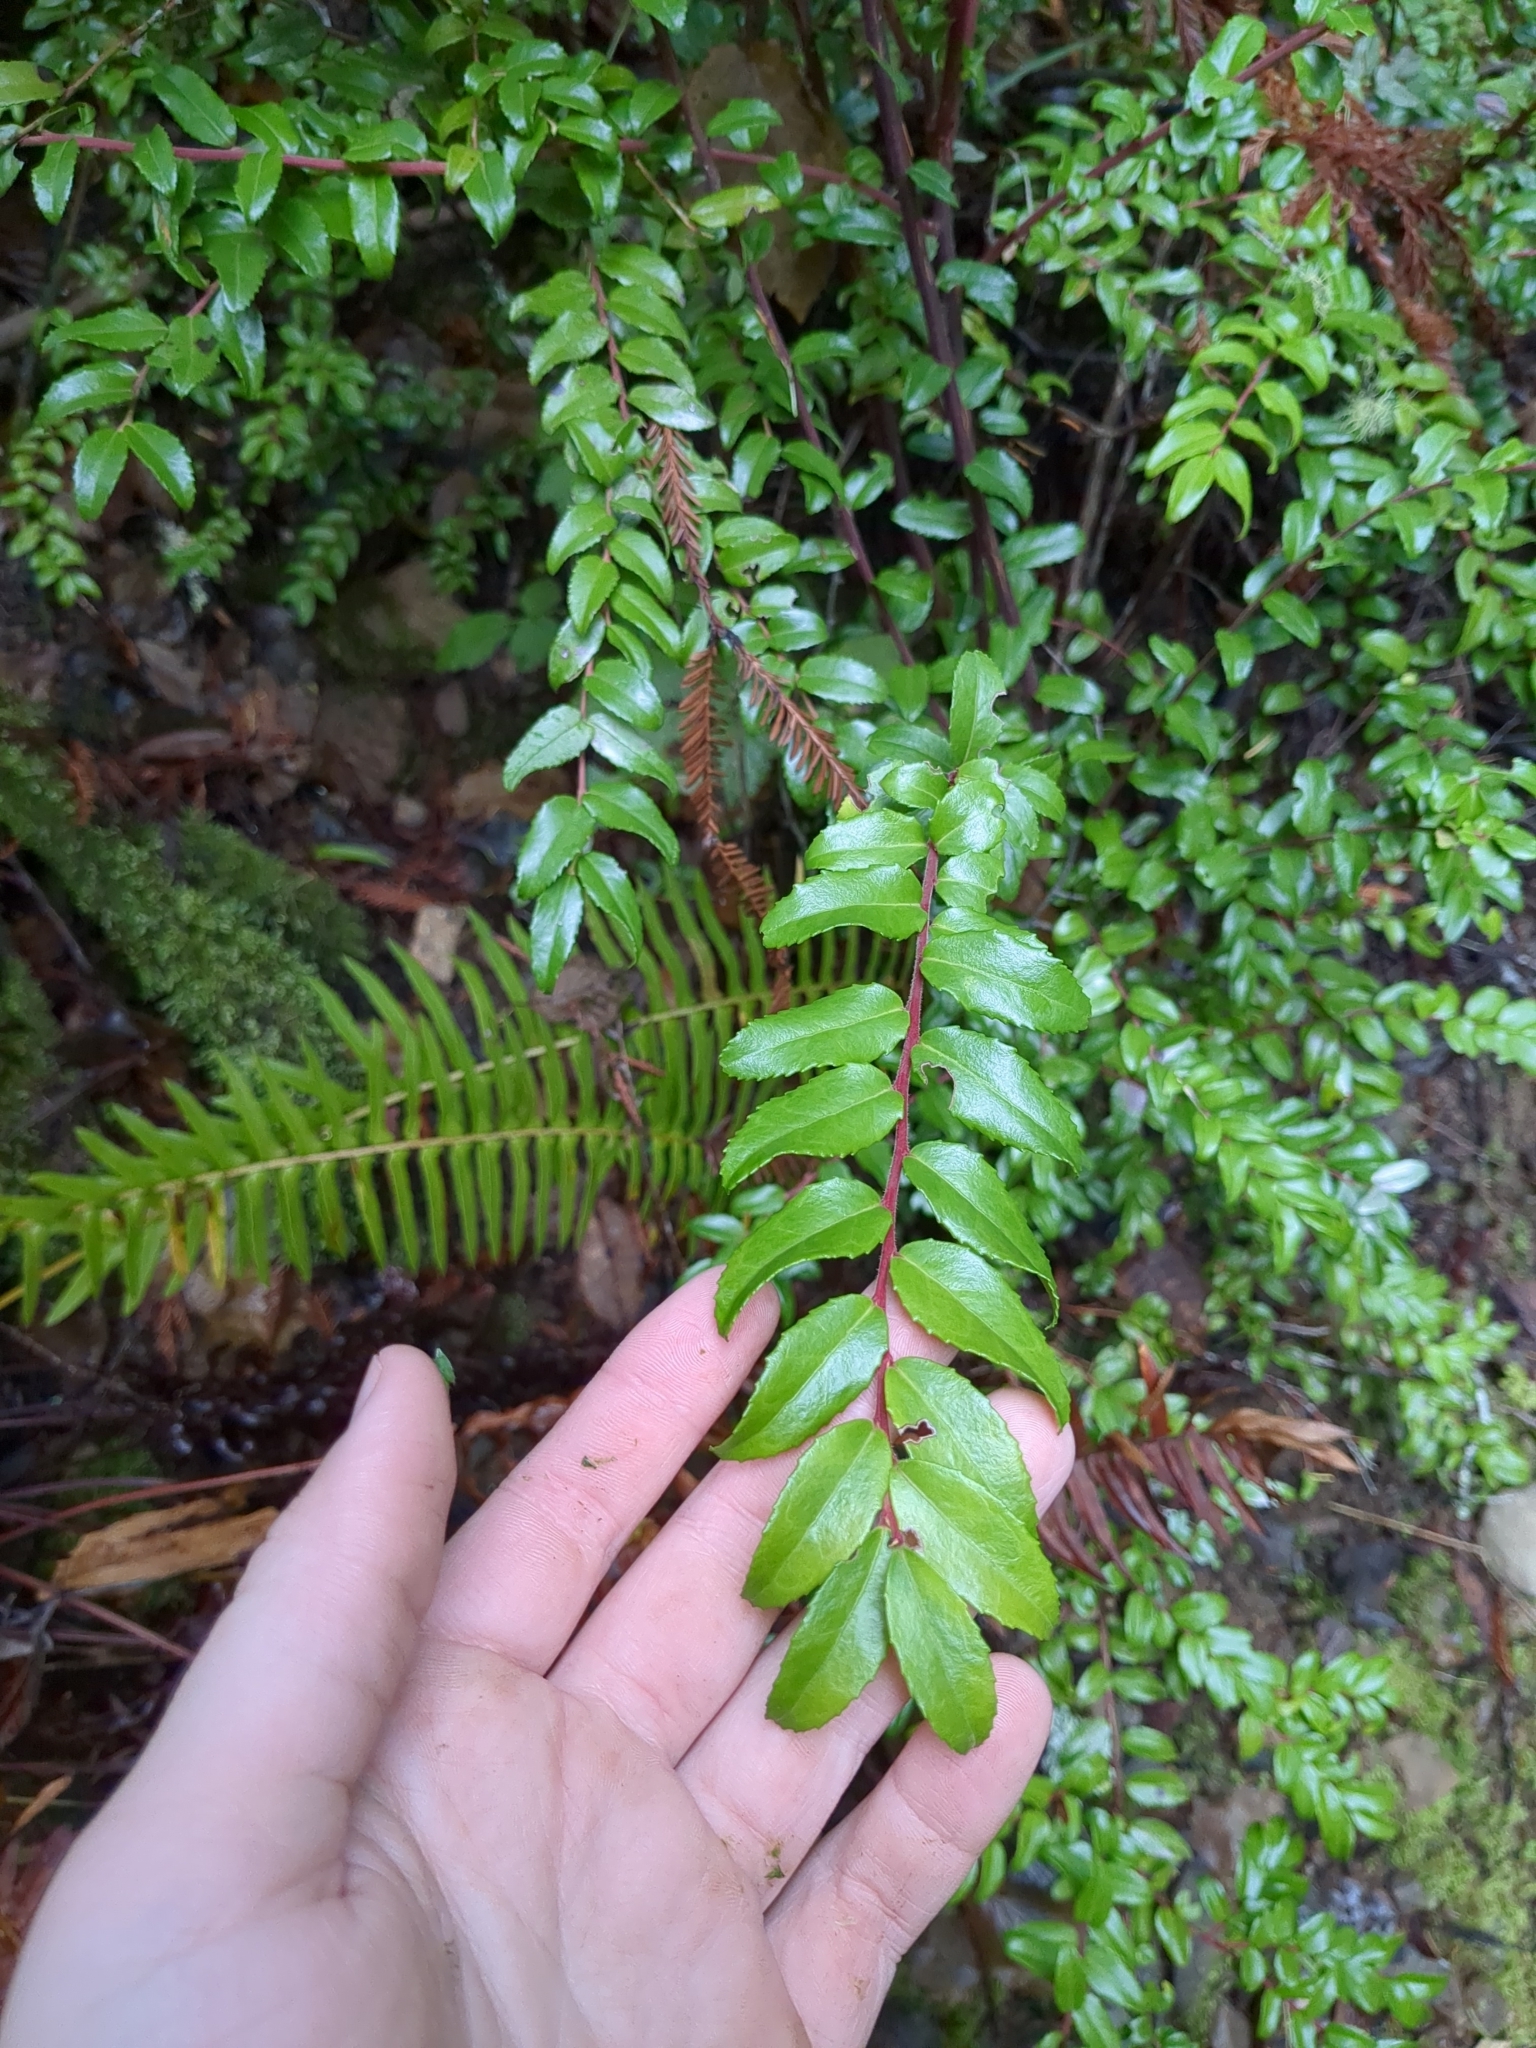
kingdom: Plantae
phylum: Tracheophyta
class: Magnoliopsida
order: Ericales
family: Ericaceae
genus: Vaccinium
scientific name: Vaccinium ovatum
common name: California-huckleberry
